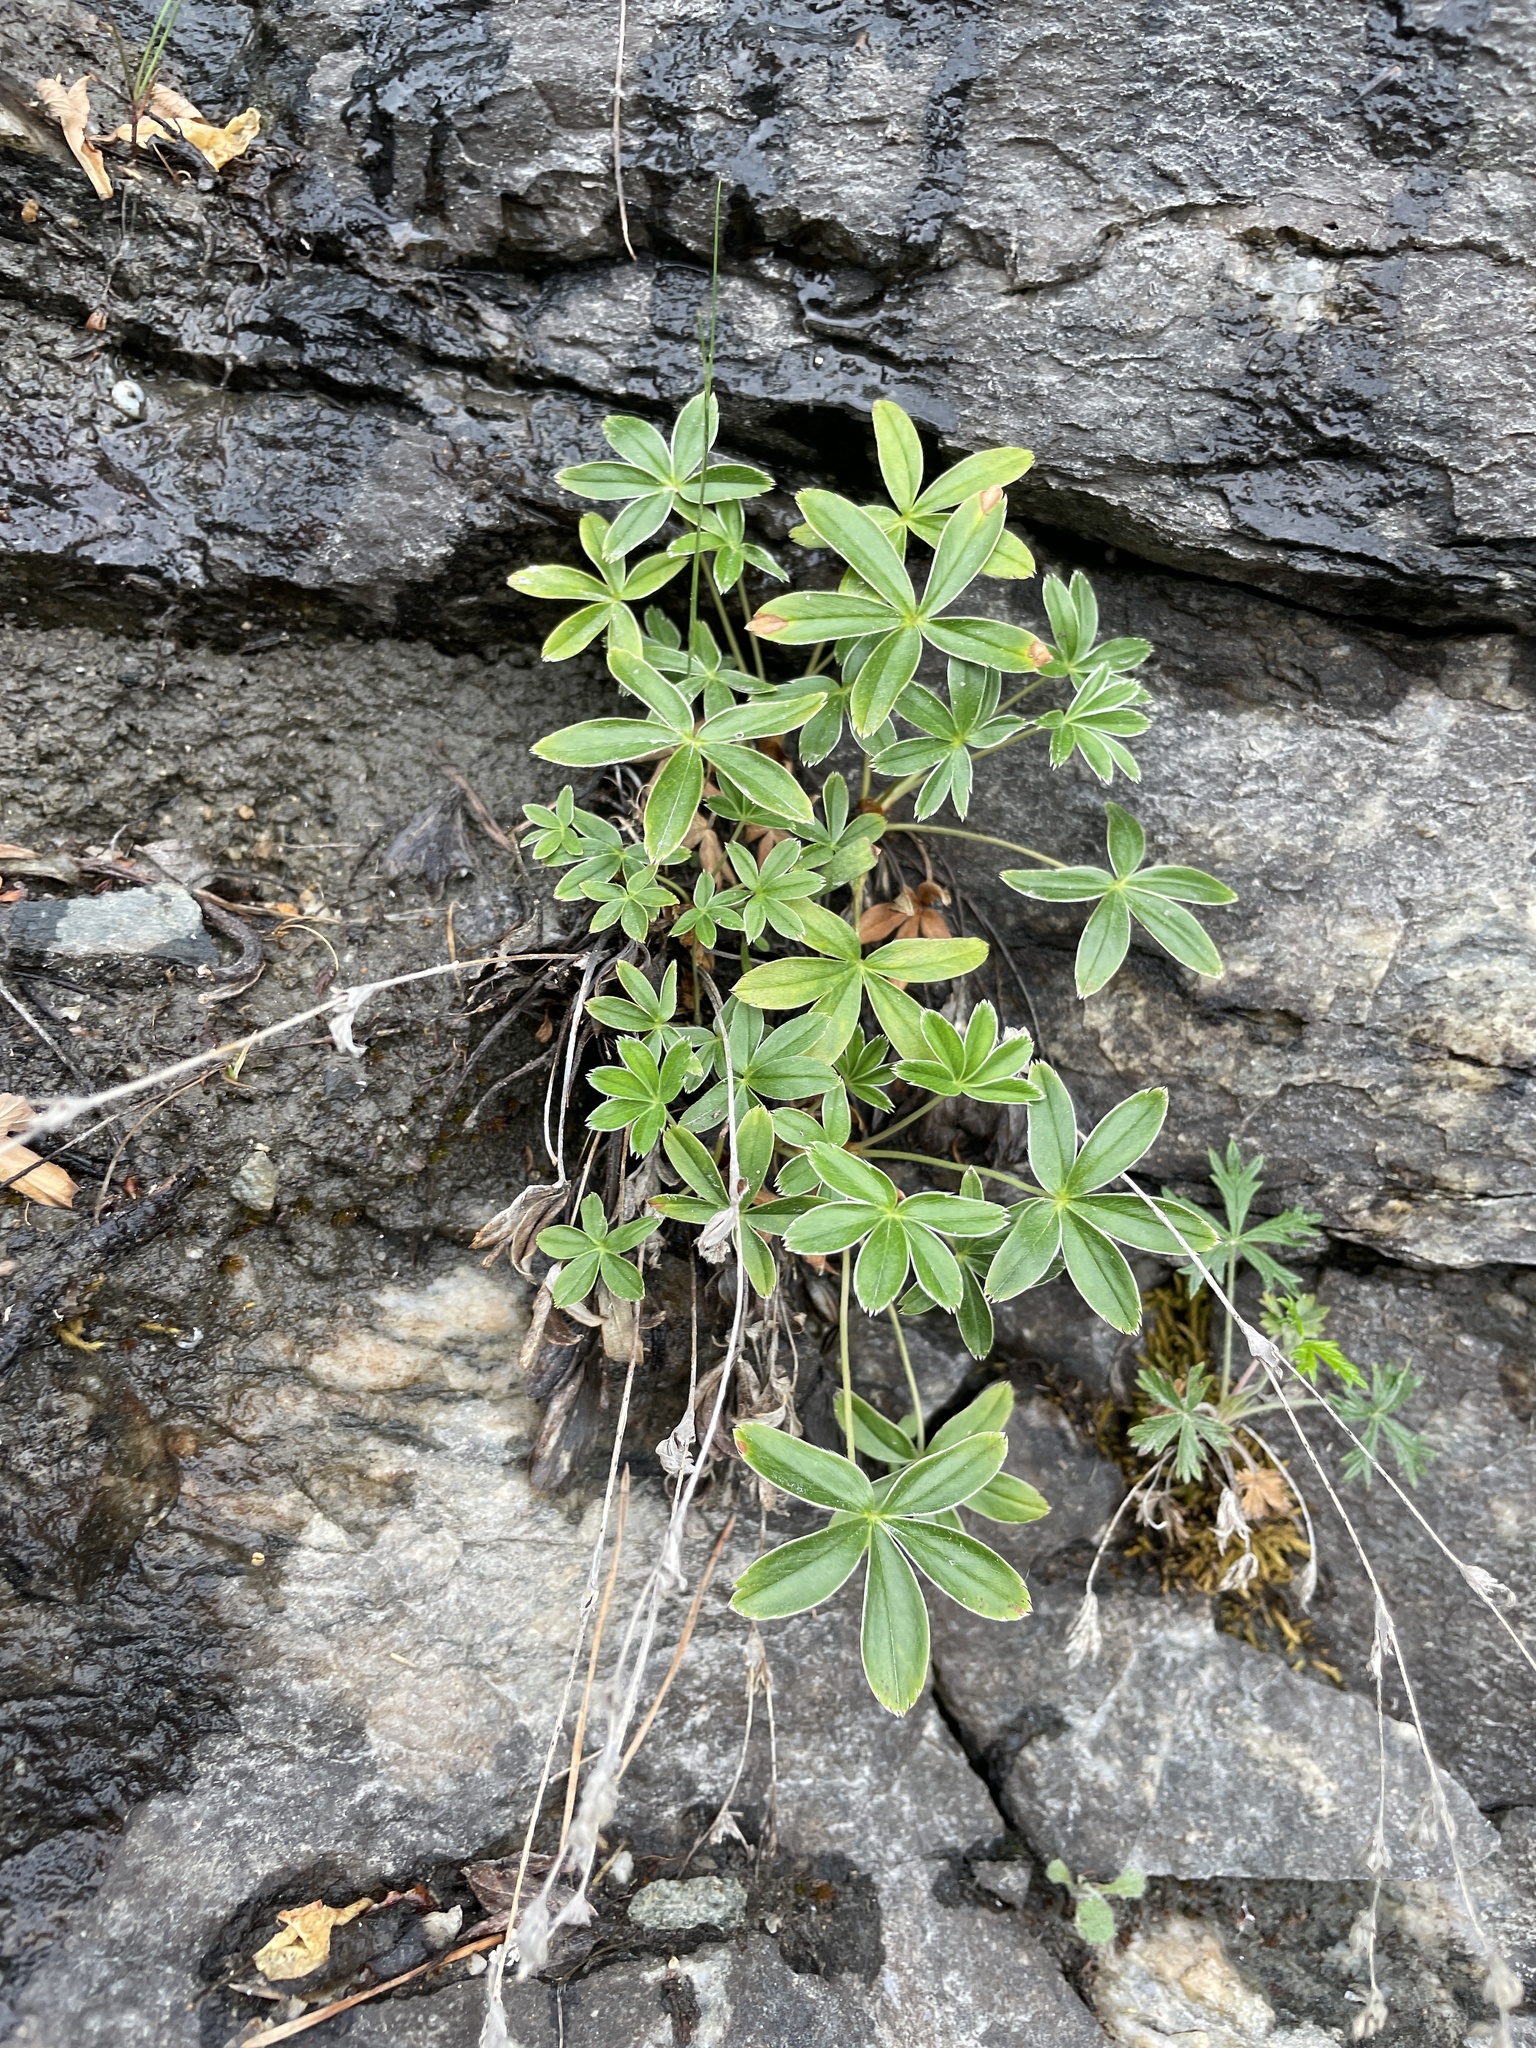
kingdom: Plantae
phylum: Tracheophyta
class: Magnoliopsida
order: Rosales
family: Rosaceae
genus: Alchemilla
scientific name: Alchemilla alpina
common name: Alpine lady's-mantle
